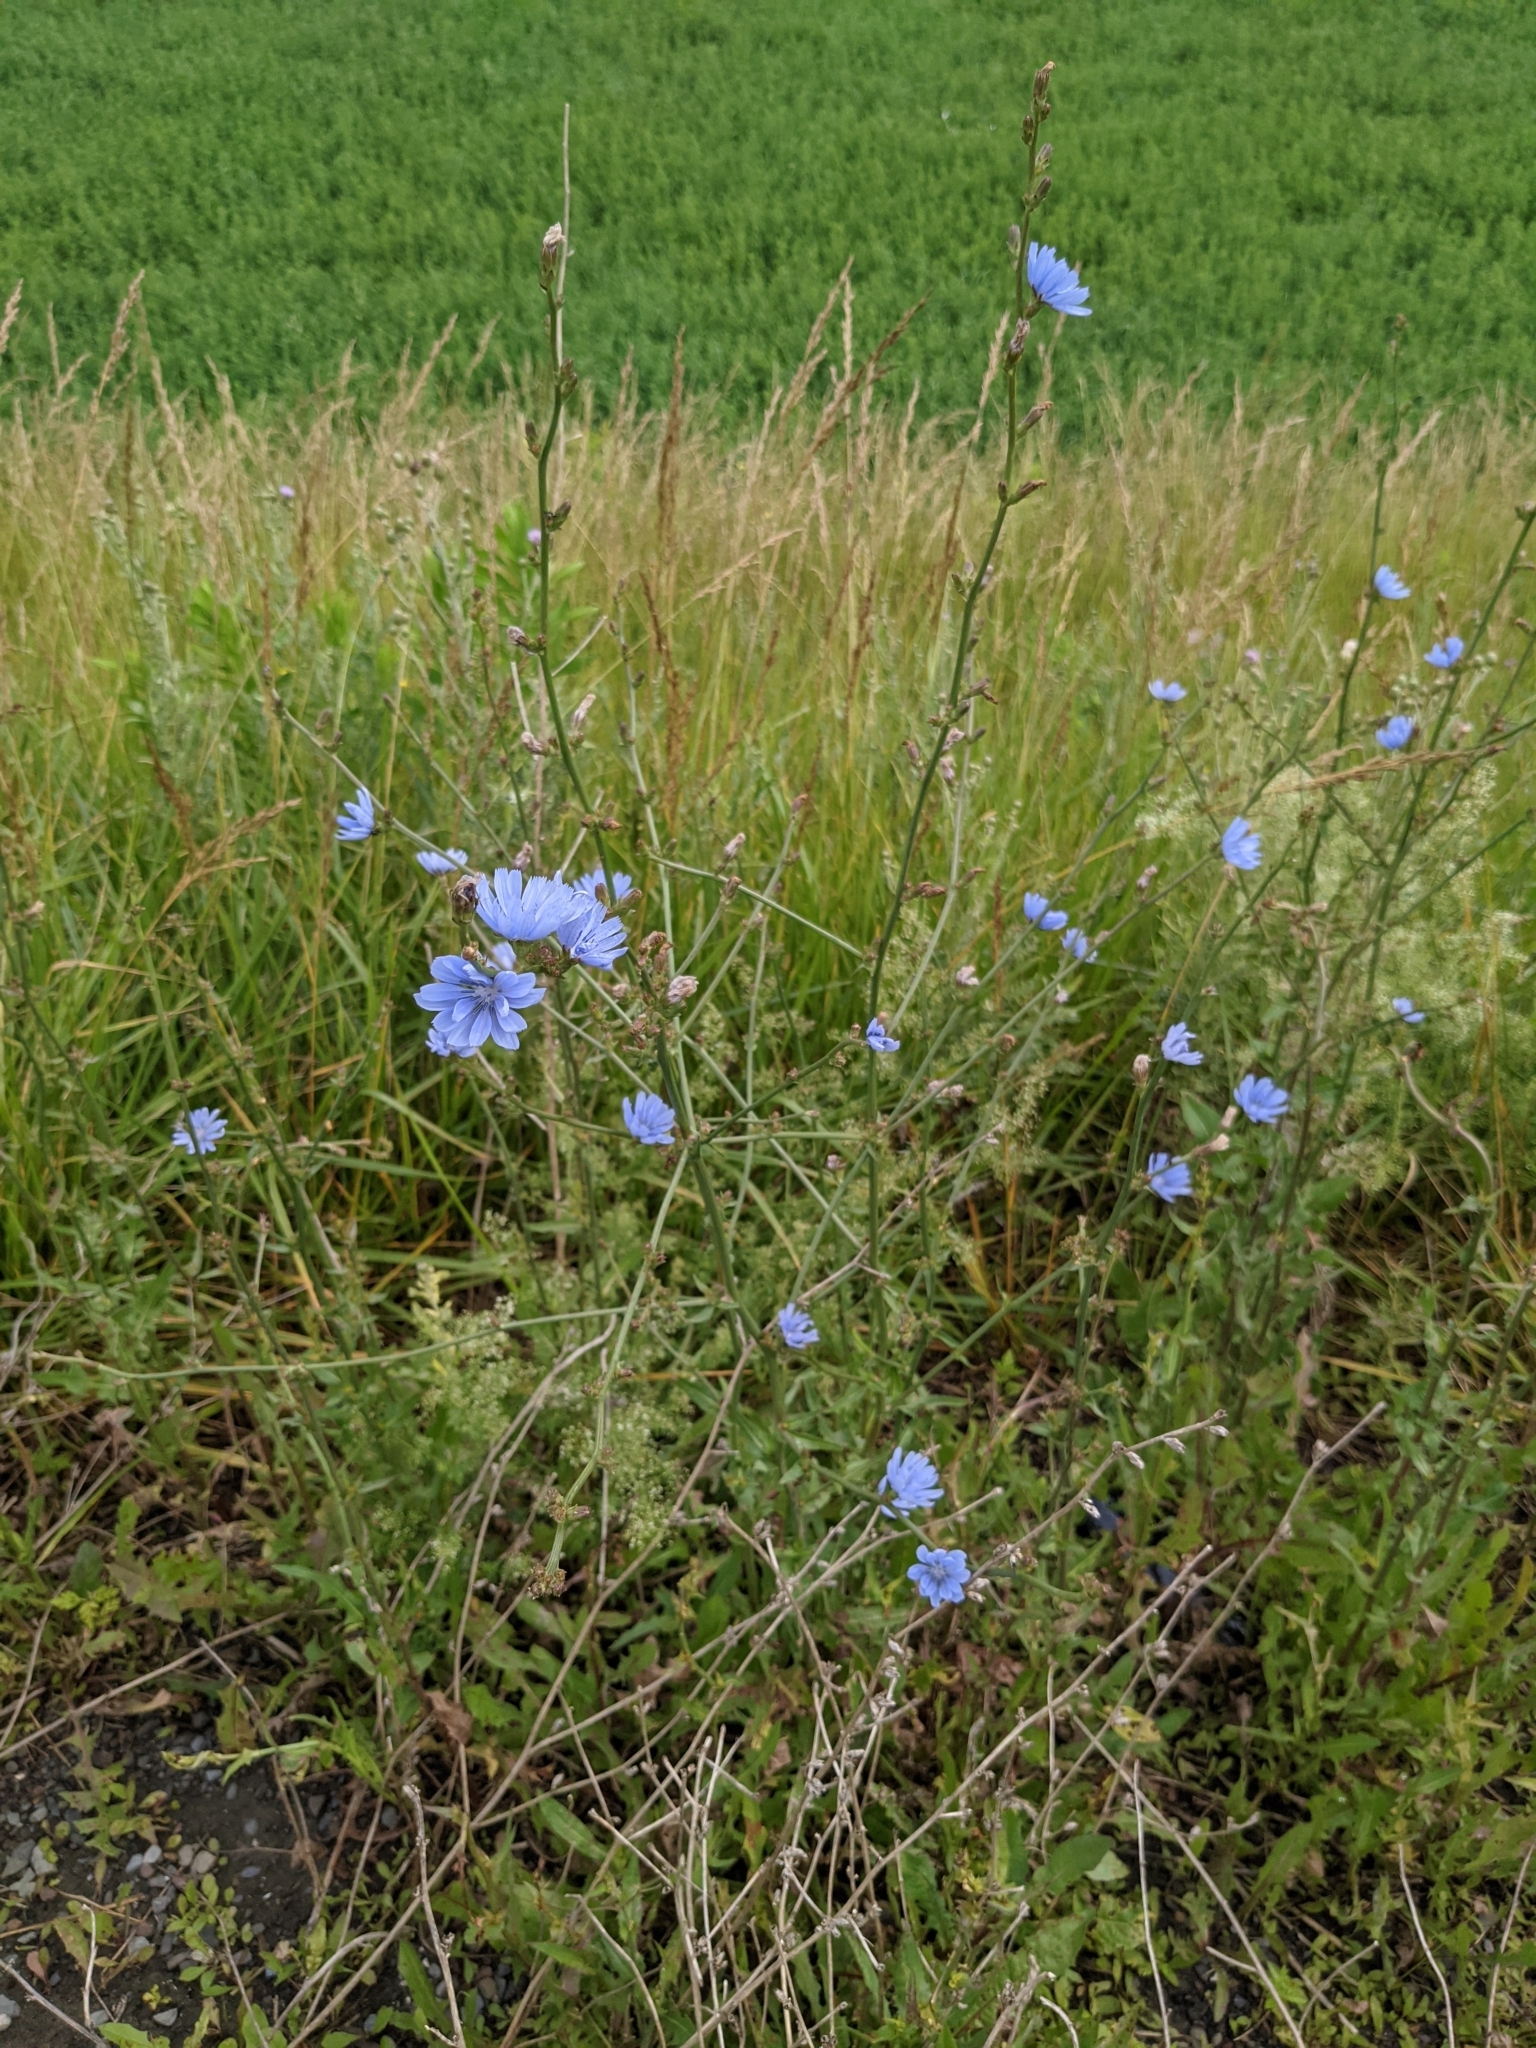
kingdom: Plantae
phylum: Tracheophyta
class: Magnoliopsida
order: Asterales
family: Asteraceae
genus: Cichorium
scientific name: Cichorium intybus
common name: Chicory
